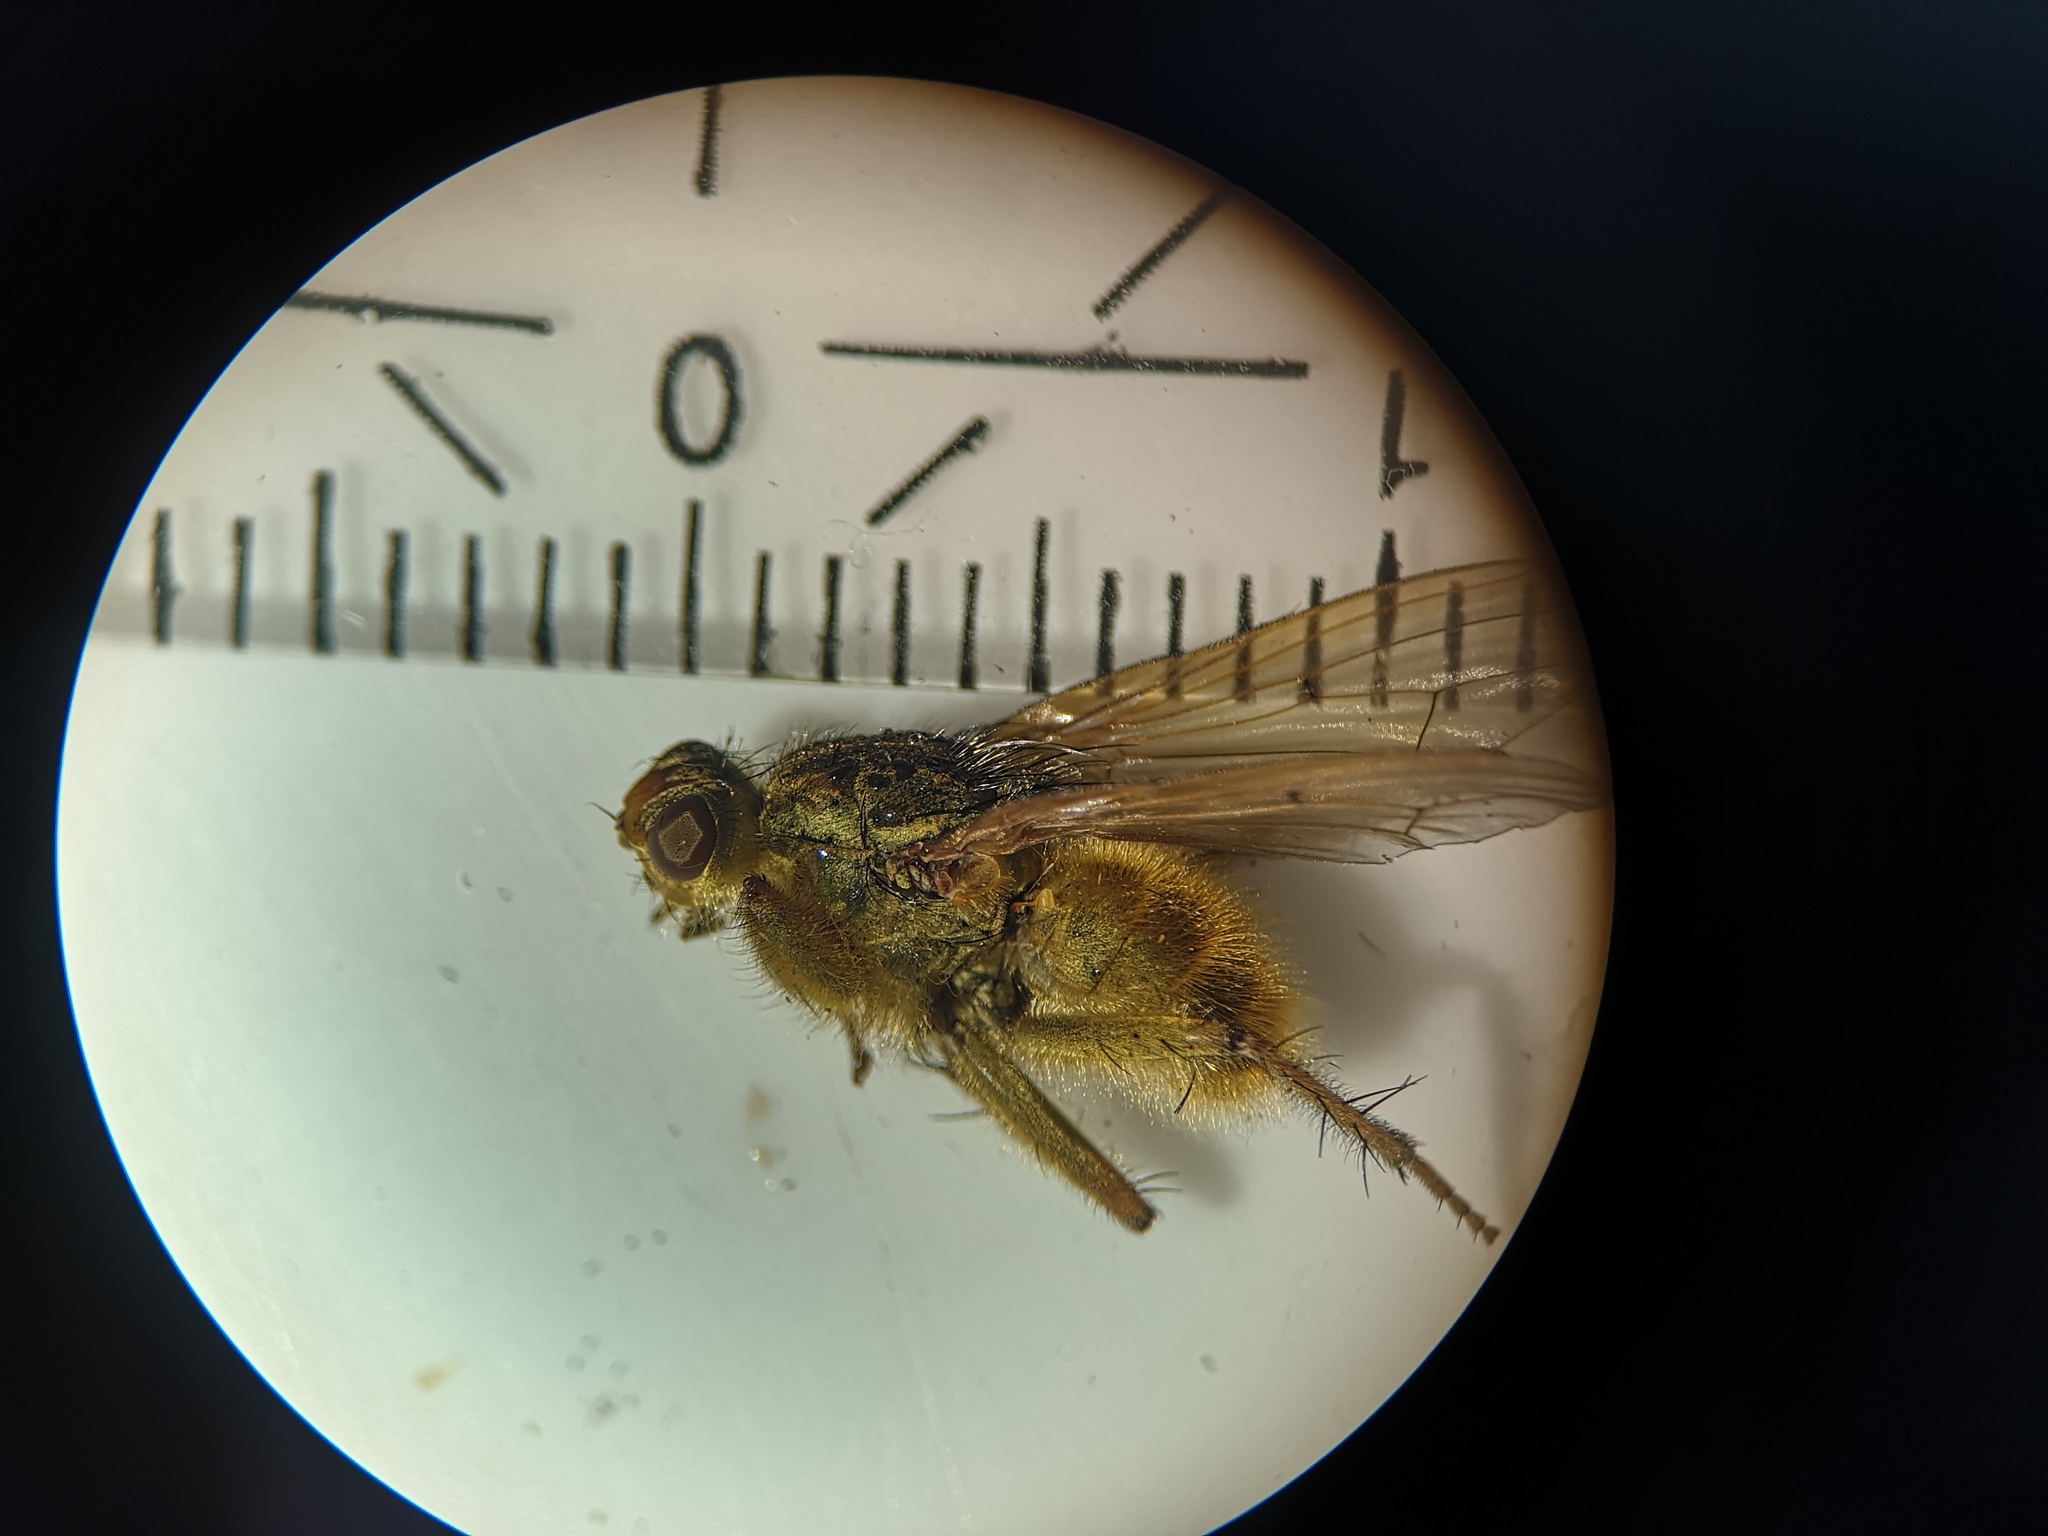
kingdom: Animalia
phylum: Arthropoda
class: Insecta
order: Diptera
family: Scathophagidae
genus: Scathophaga
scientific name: Scathophaga stercoraria
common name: Yellow dung fly
